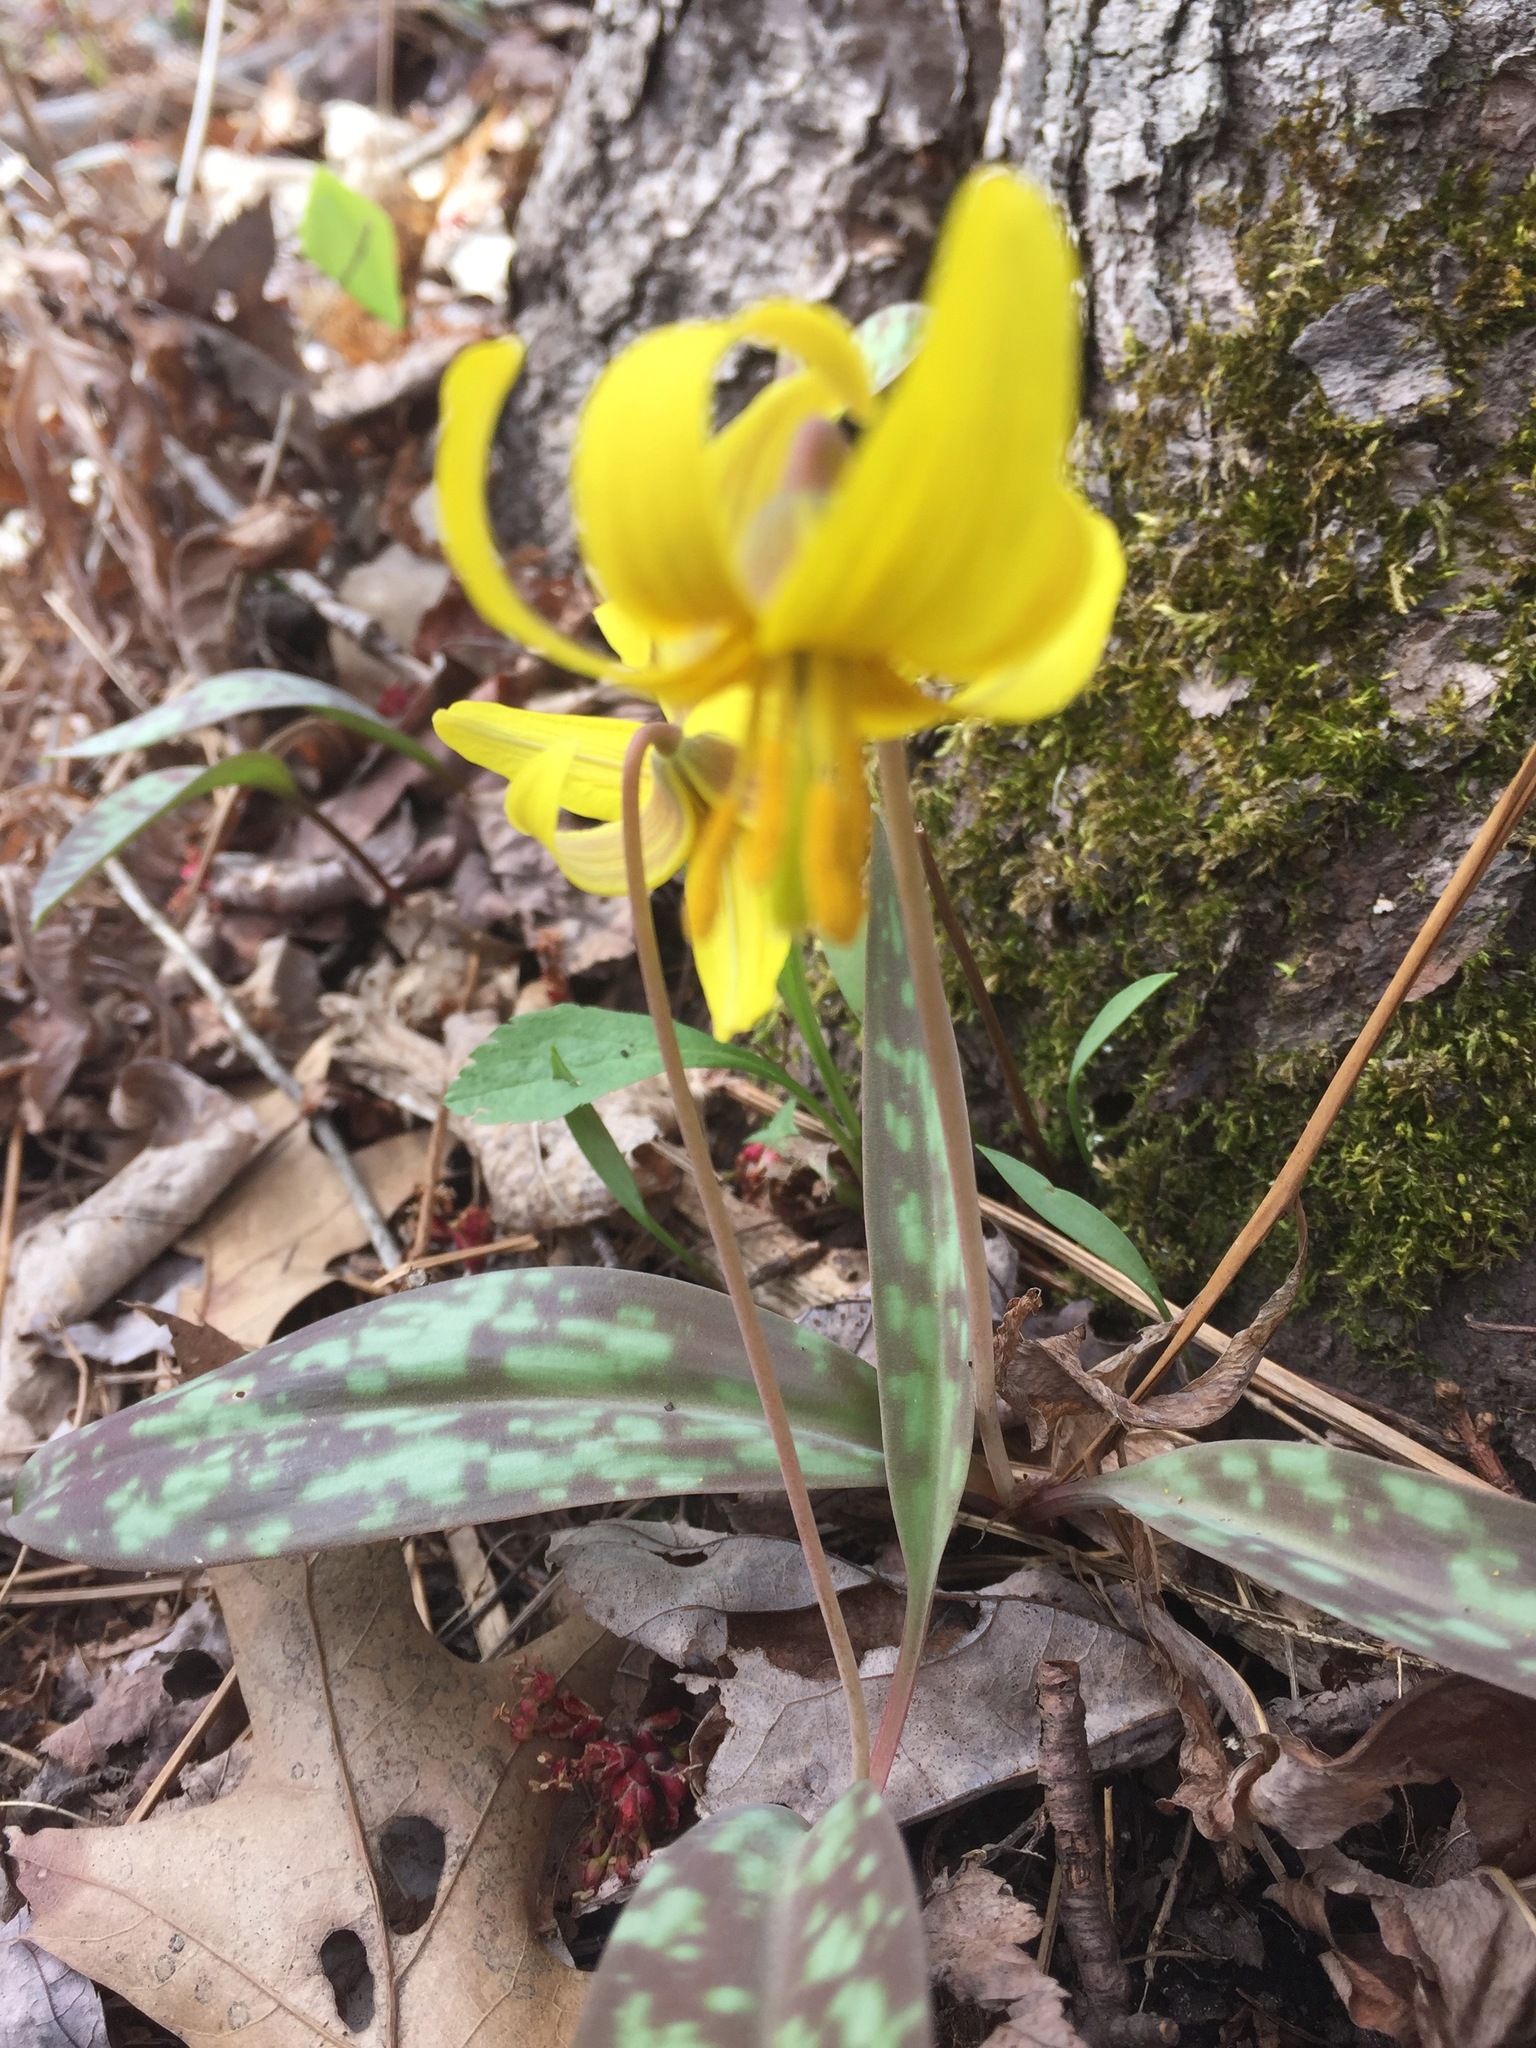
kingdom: Plantae
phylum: Tracheophyta
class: Liliopsida
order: Liliales
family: Liliaceae
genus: Erythronium
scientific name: Erythronium americanum
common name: Yellow adder's-tongue
